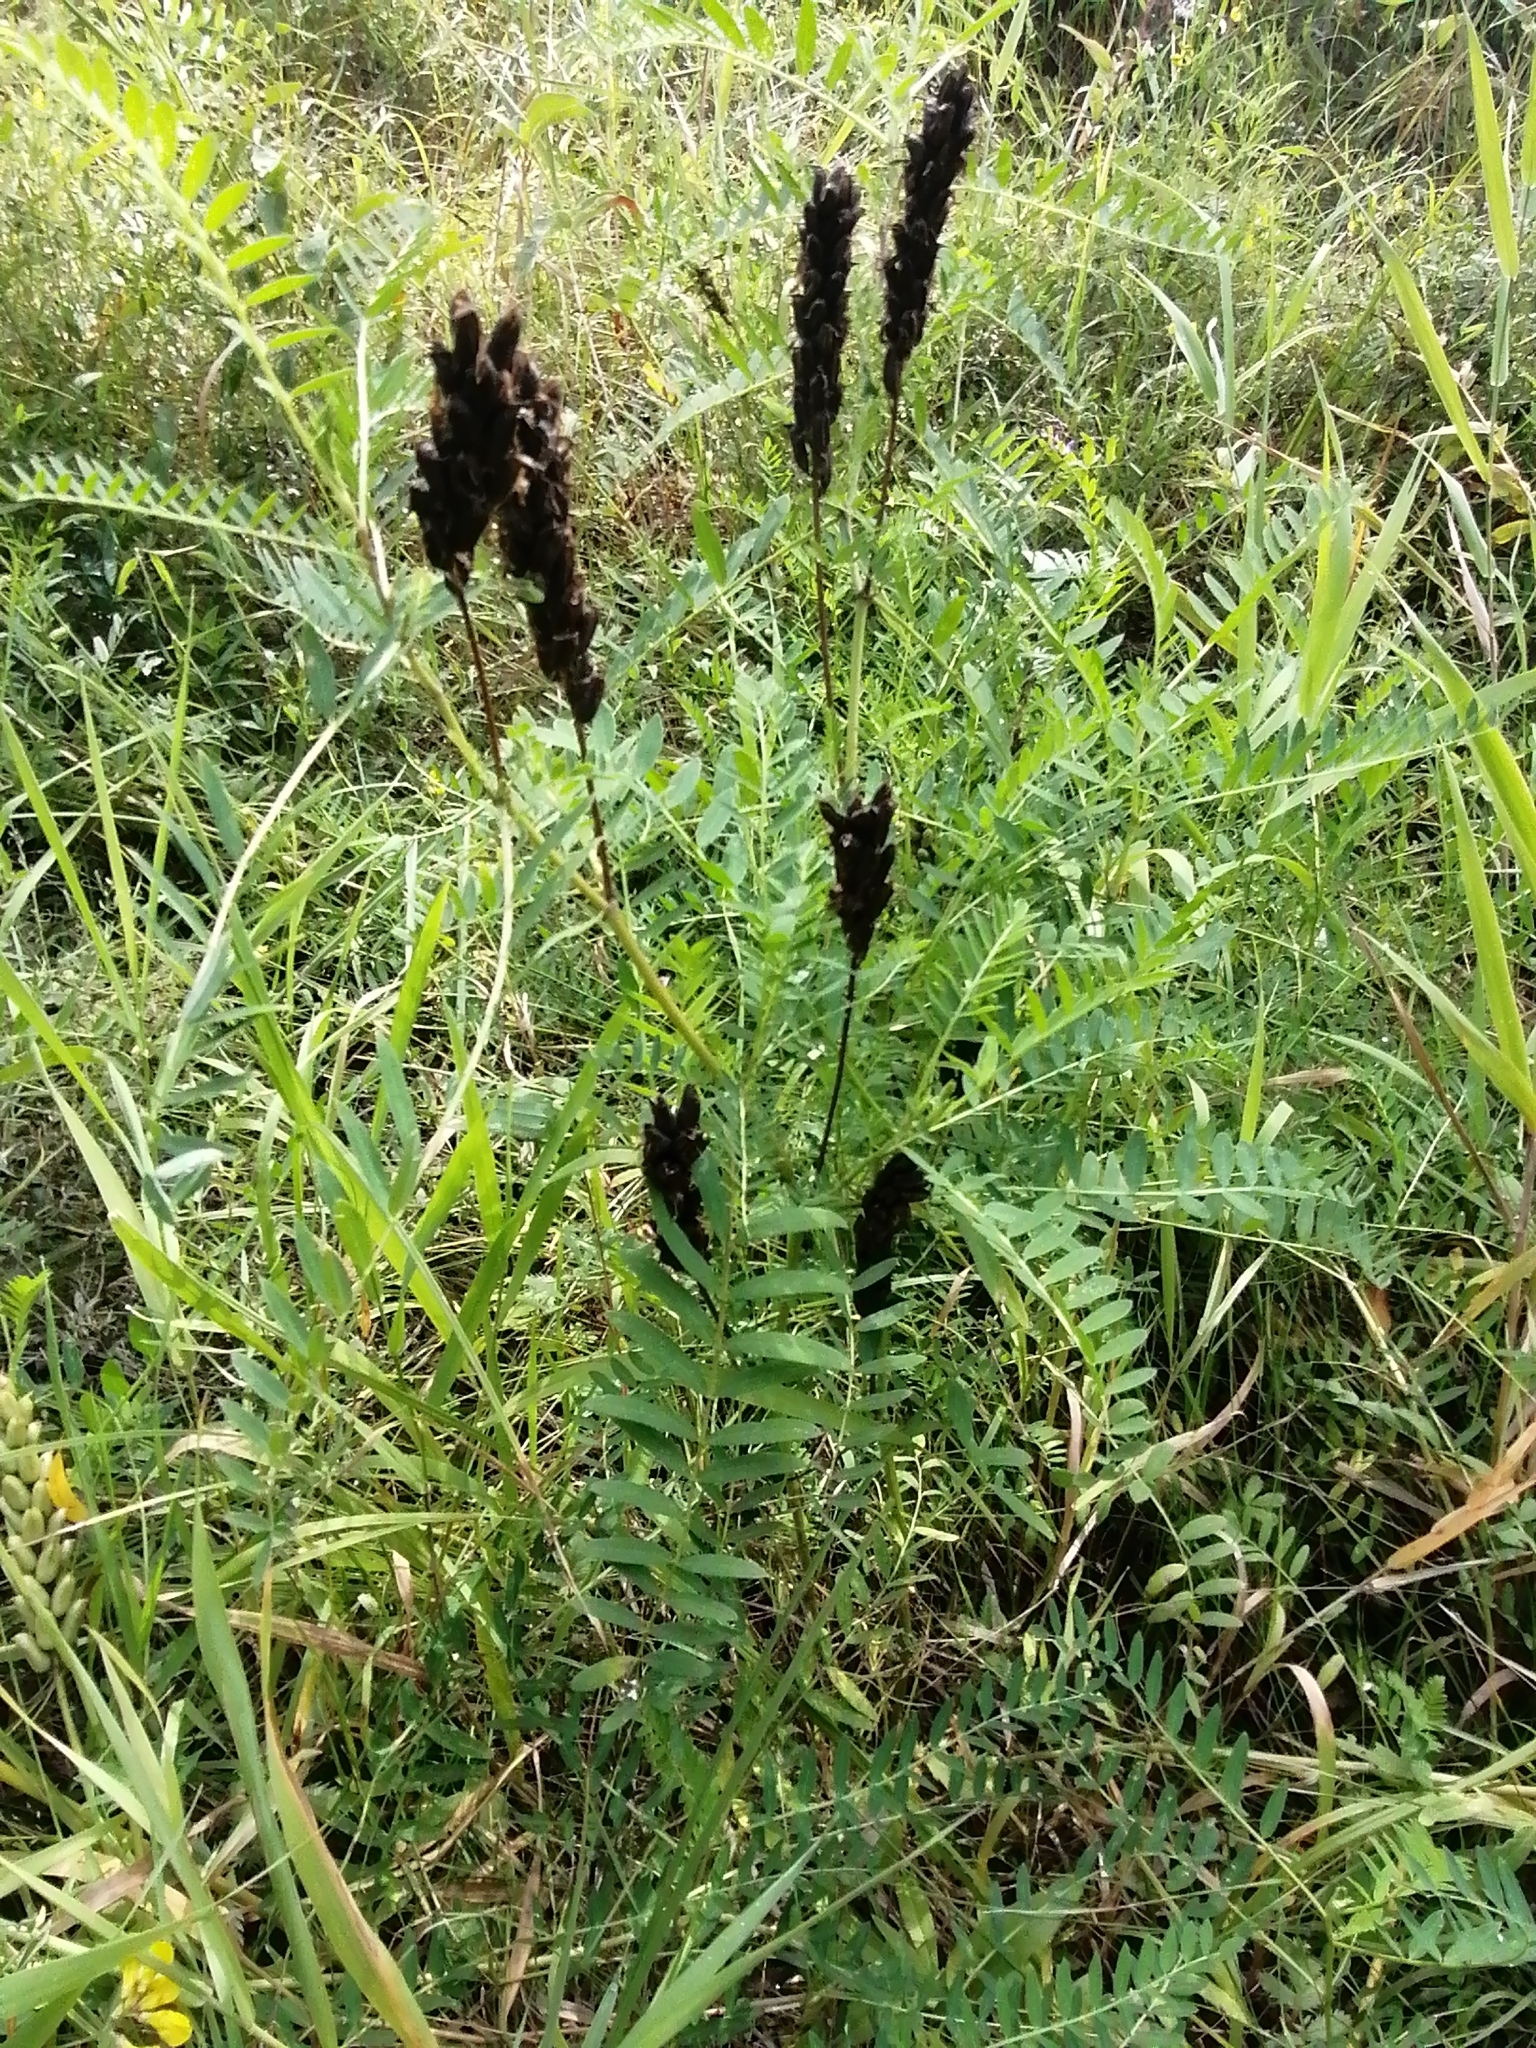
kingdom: Plantae
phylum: Tracheophyta
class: Magnoliopsida
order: Fabales
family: Fabaceae
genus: Astragalus
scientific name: Astragalus uliginosus
